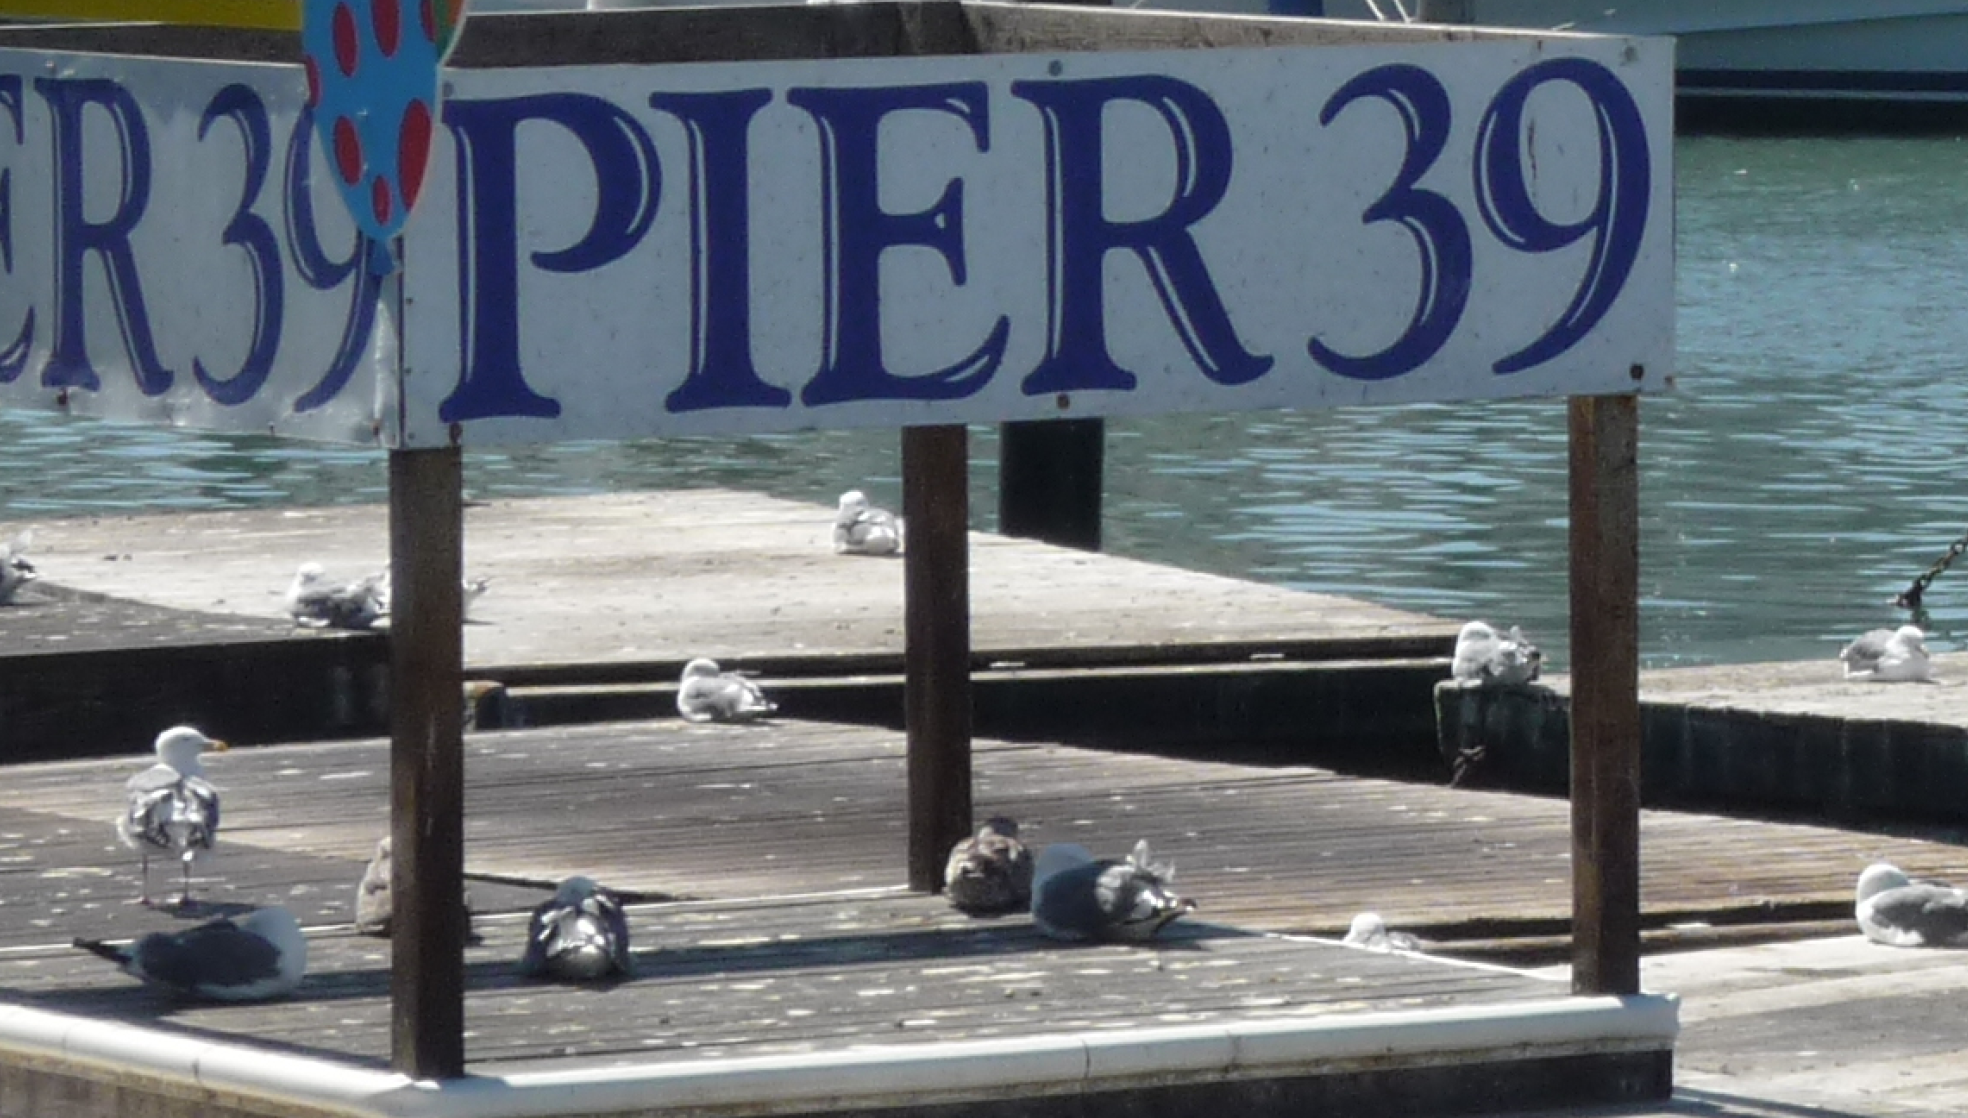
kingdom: Animalia
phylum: Chordata
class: Aves
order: Charadriiformes
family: Laridae
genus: Larus
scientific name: Larus occidentalis
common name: Western gull
